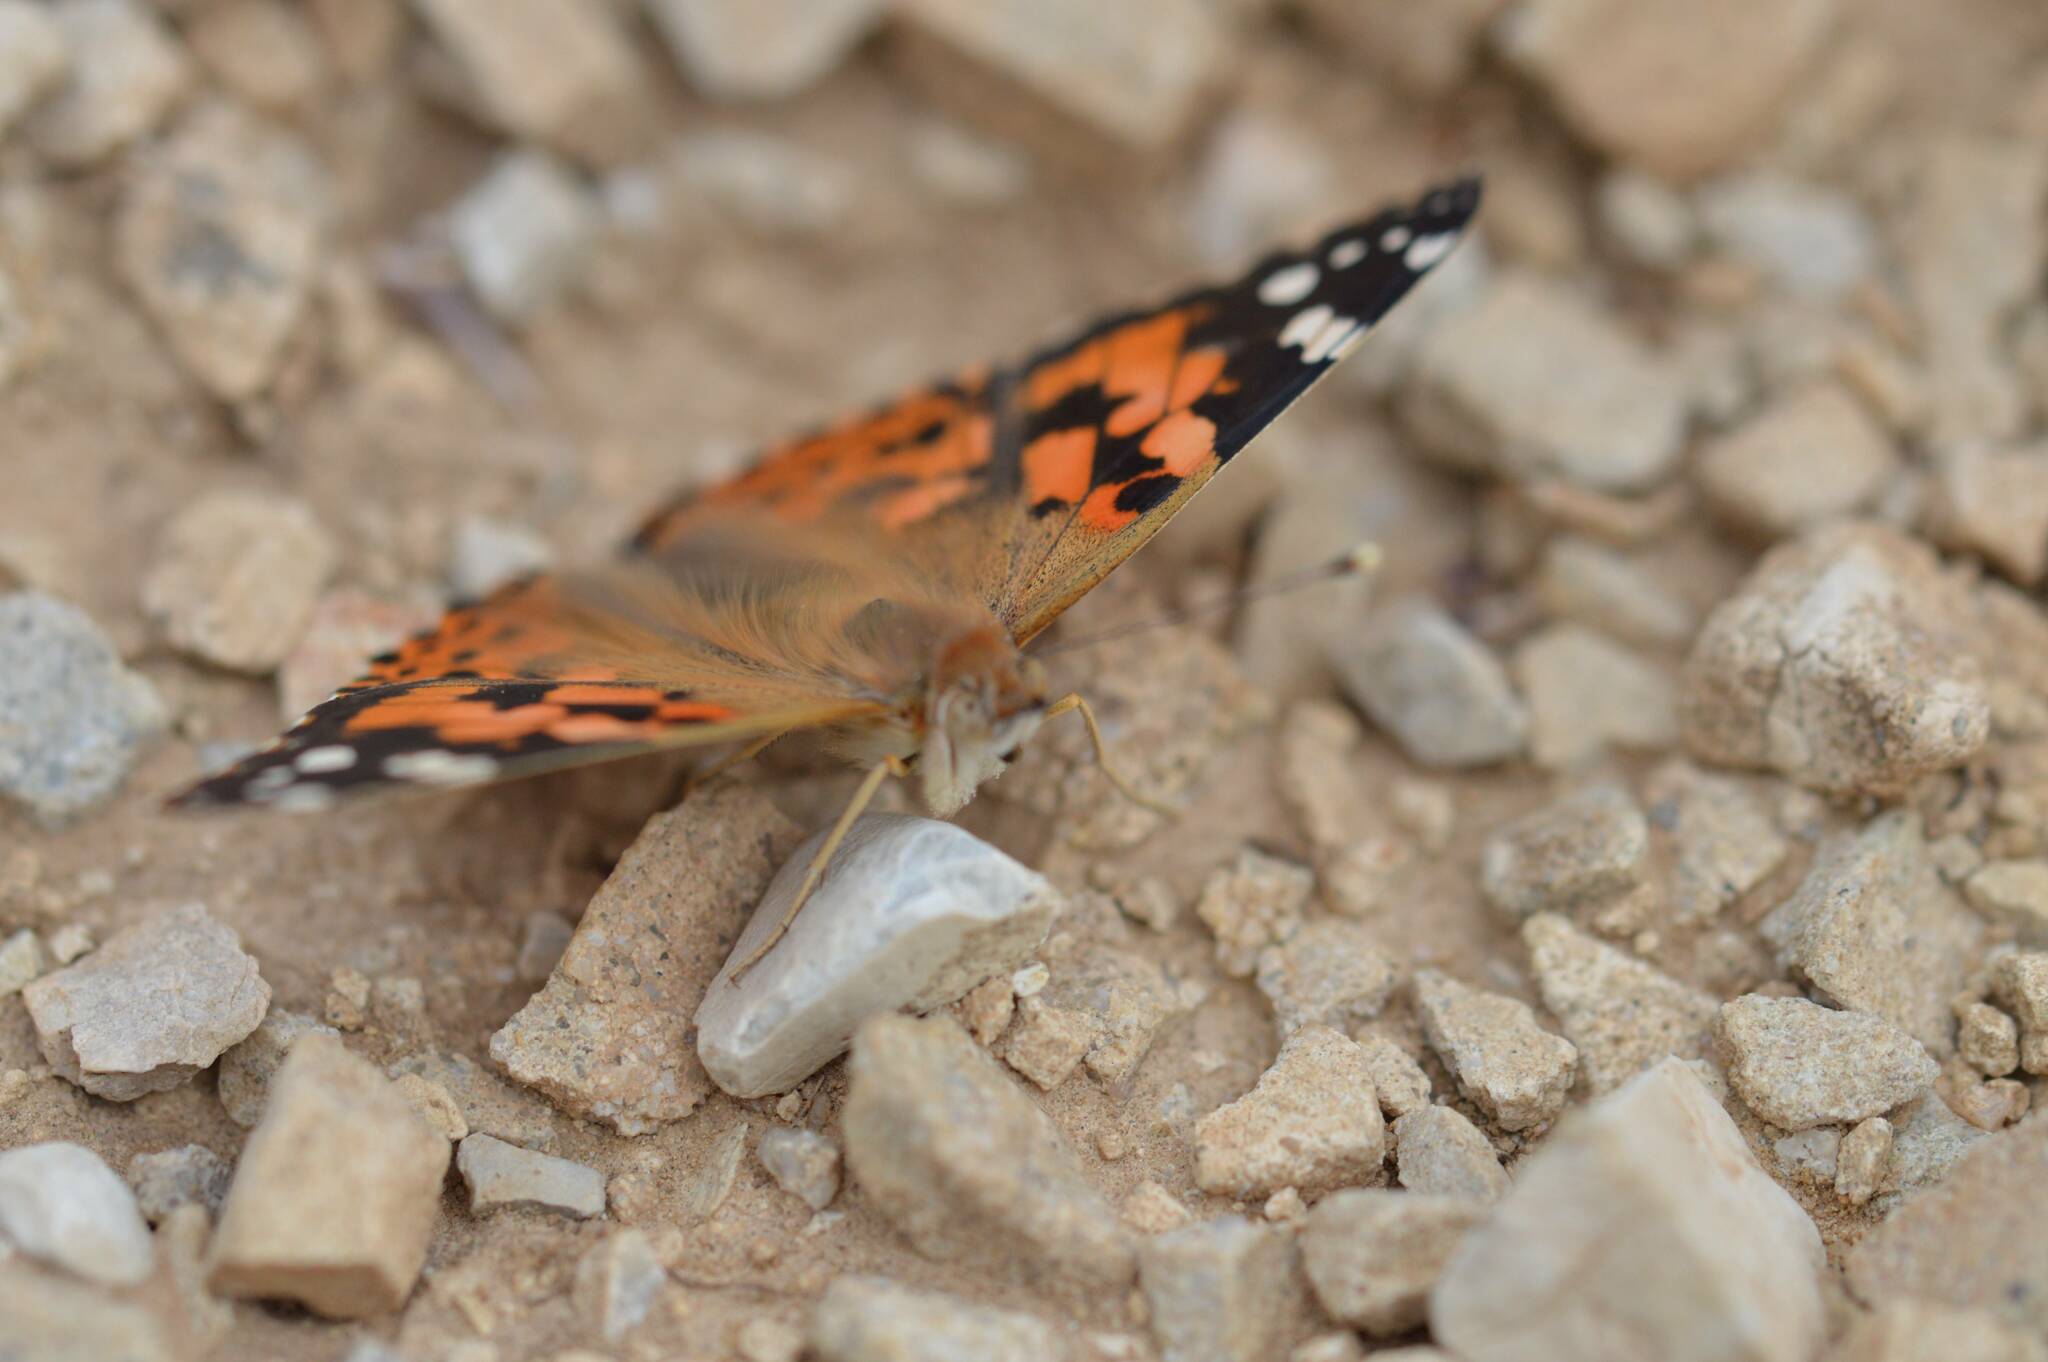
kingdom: Animalia
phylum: Arthropoda
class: Insecta
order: Lepidoptera
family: Nymphalidae
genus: Vanessa
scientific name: Vanessa cardui
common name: Painted lady
